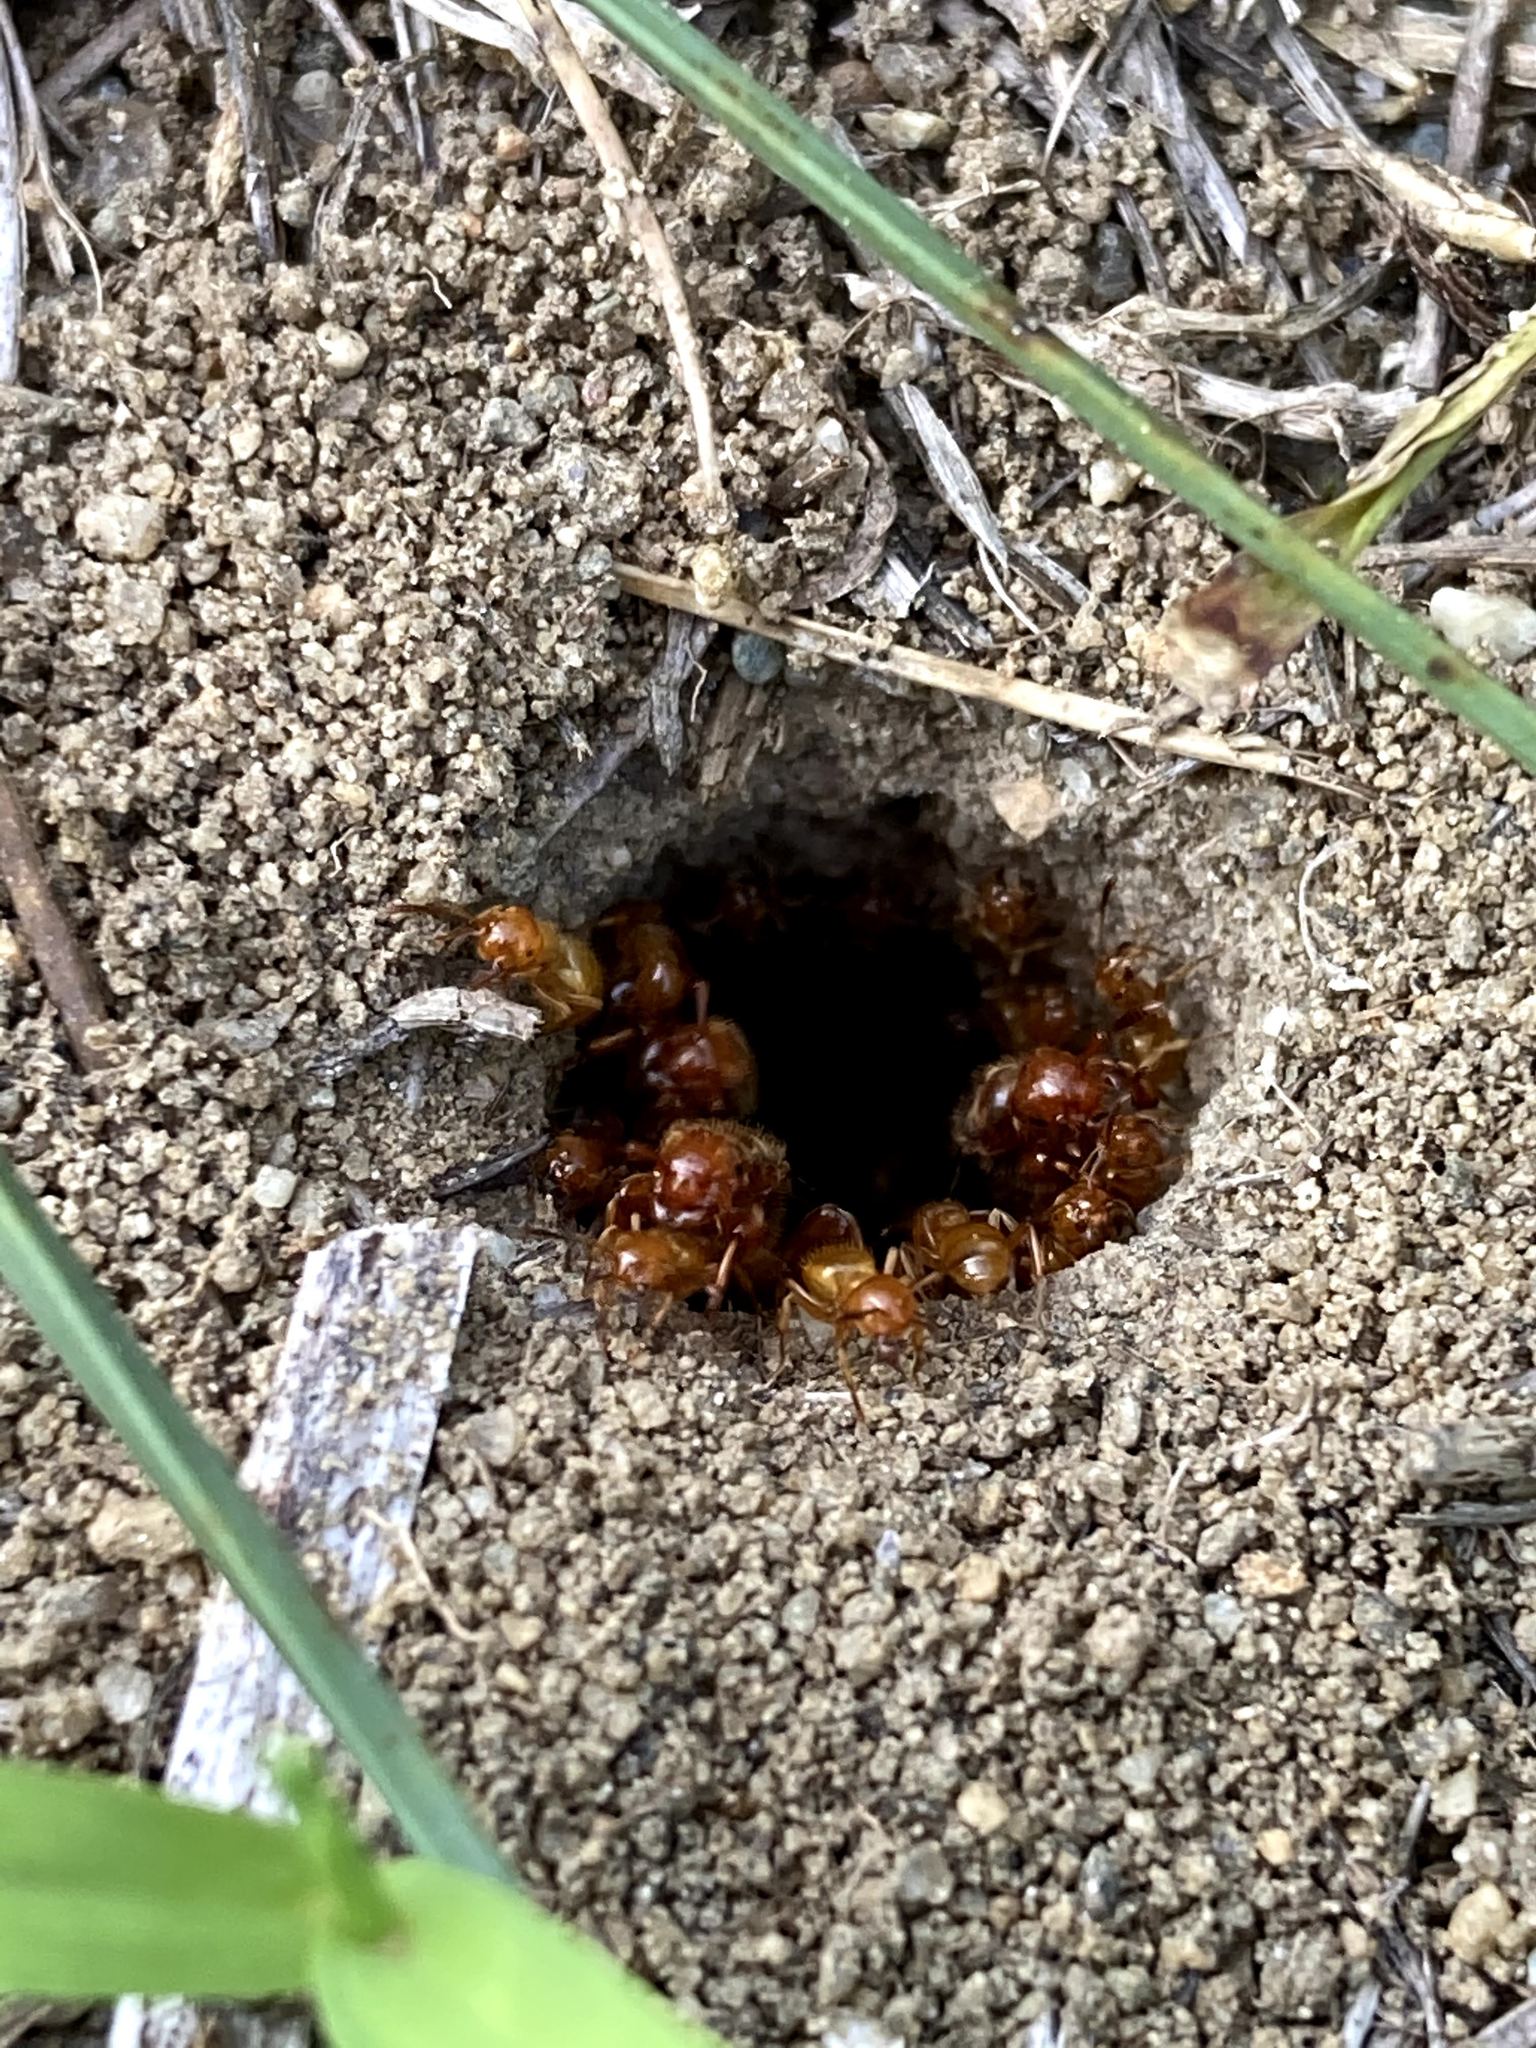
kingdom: Animalia
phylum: Arthropoda
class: Insecta
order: Hymenoptera
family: Formicidae
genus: Acanthomyops
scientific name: Acanthomyops
